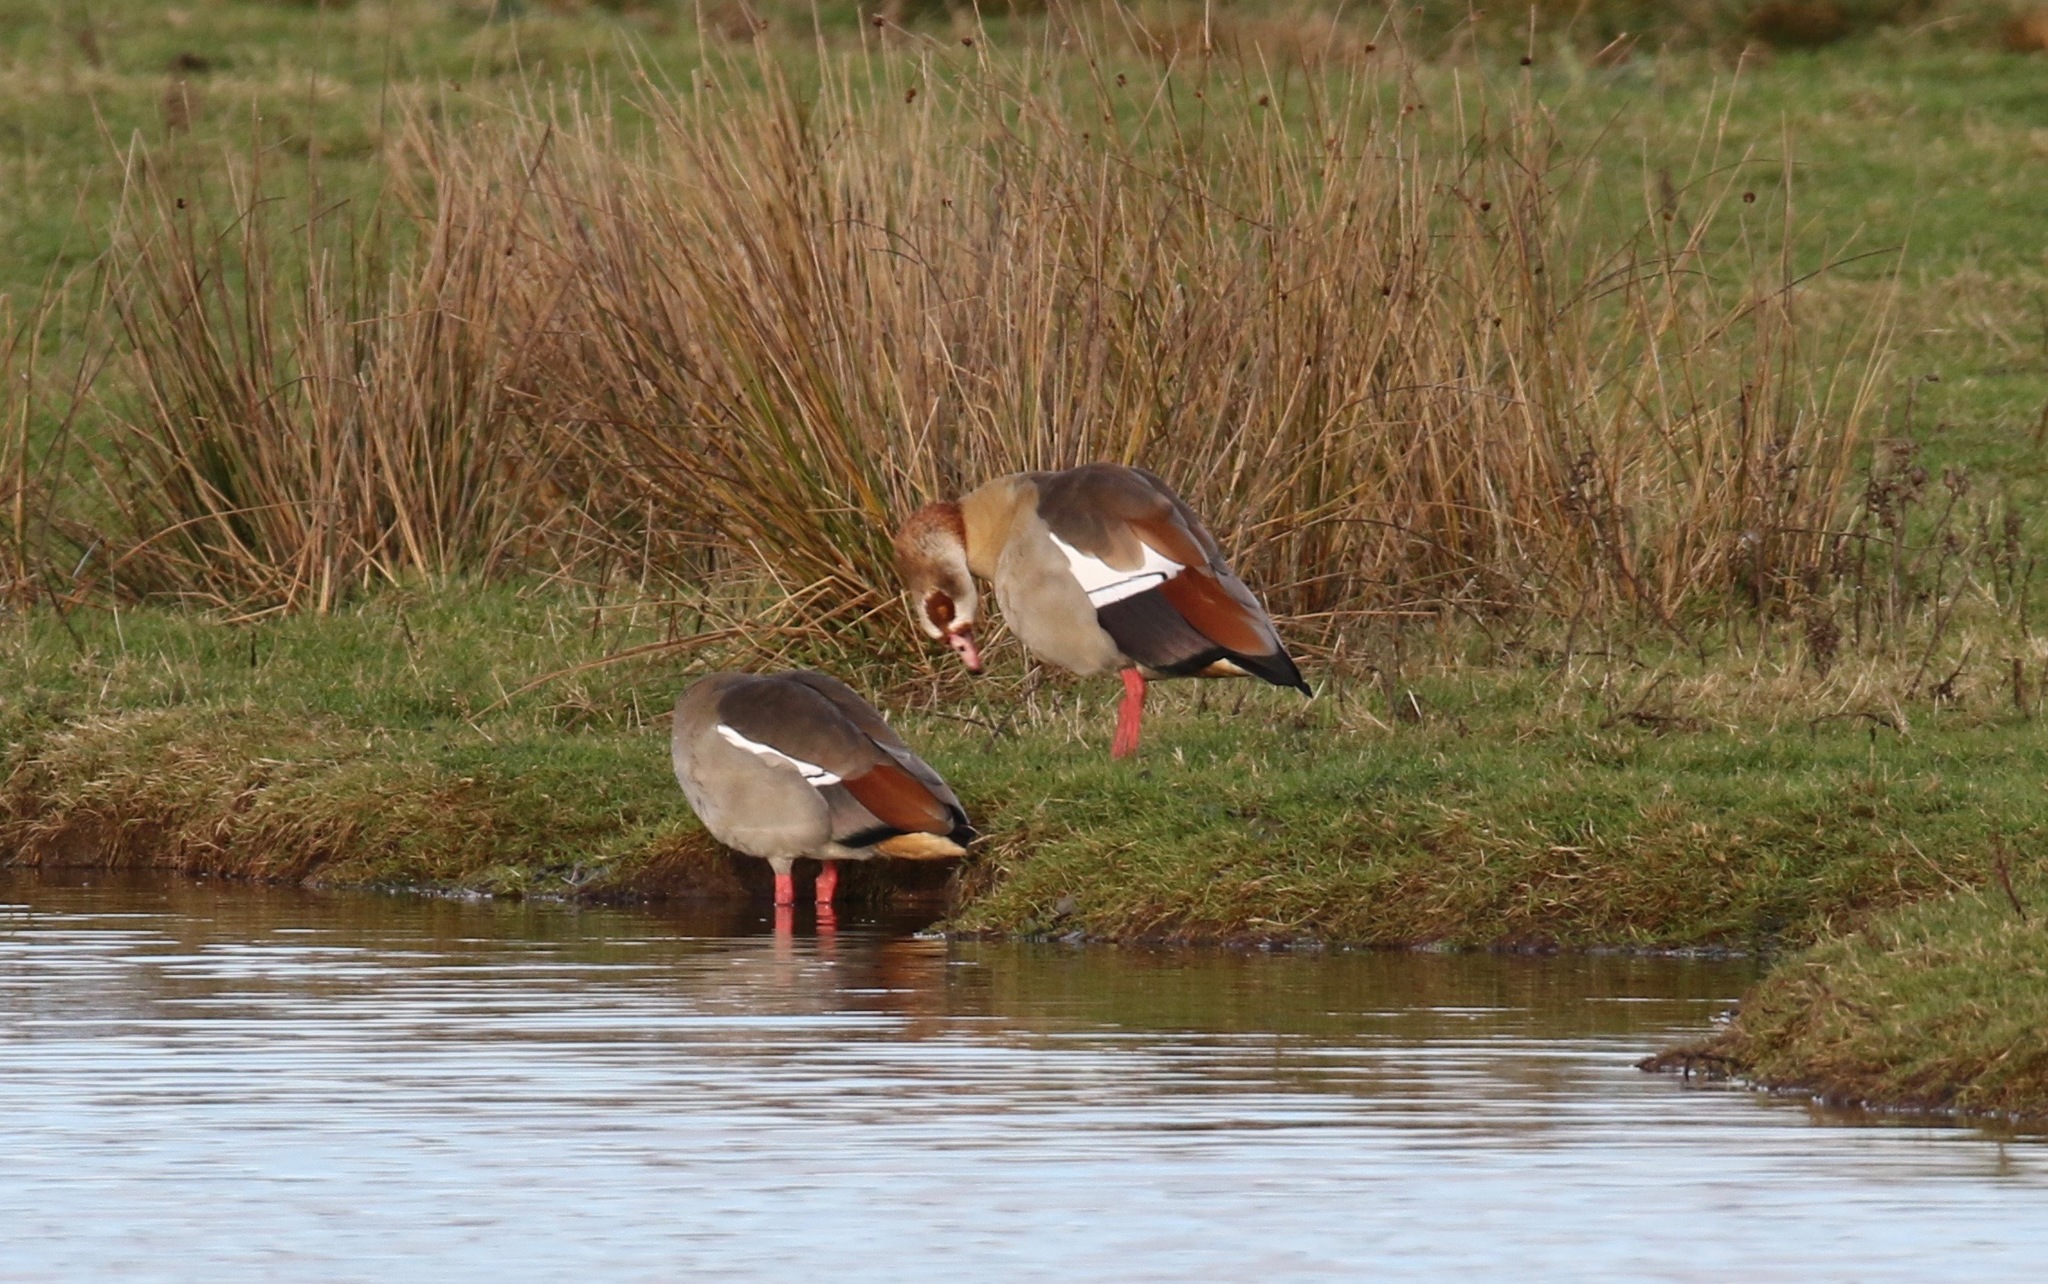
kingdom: Animalia
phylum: Chordata
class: Aves
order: Anseriformes
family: Anatidae
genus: Alopochen
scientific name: Alopochen aegyptiaca
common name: Egyptian goose
